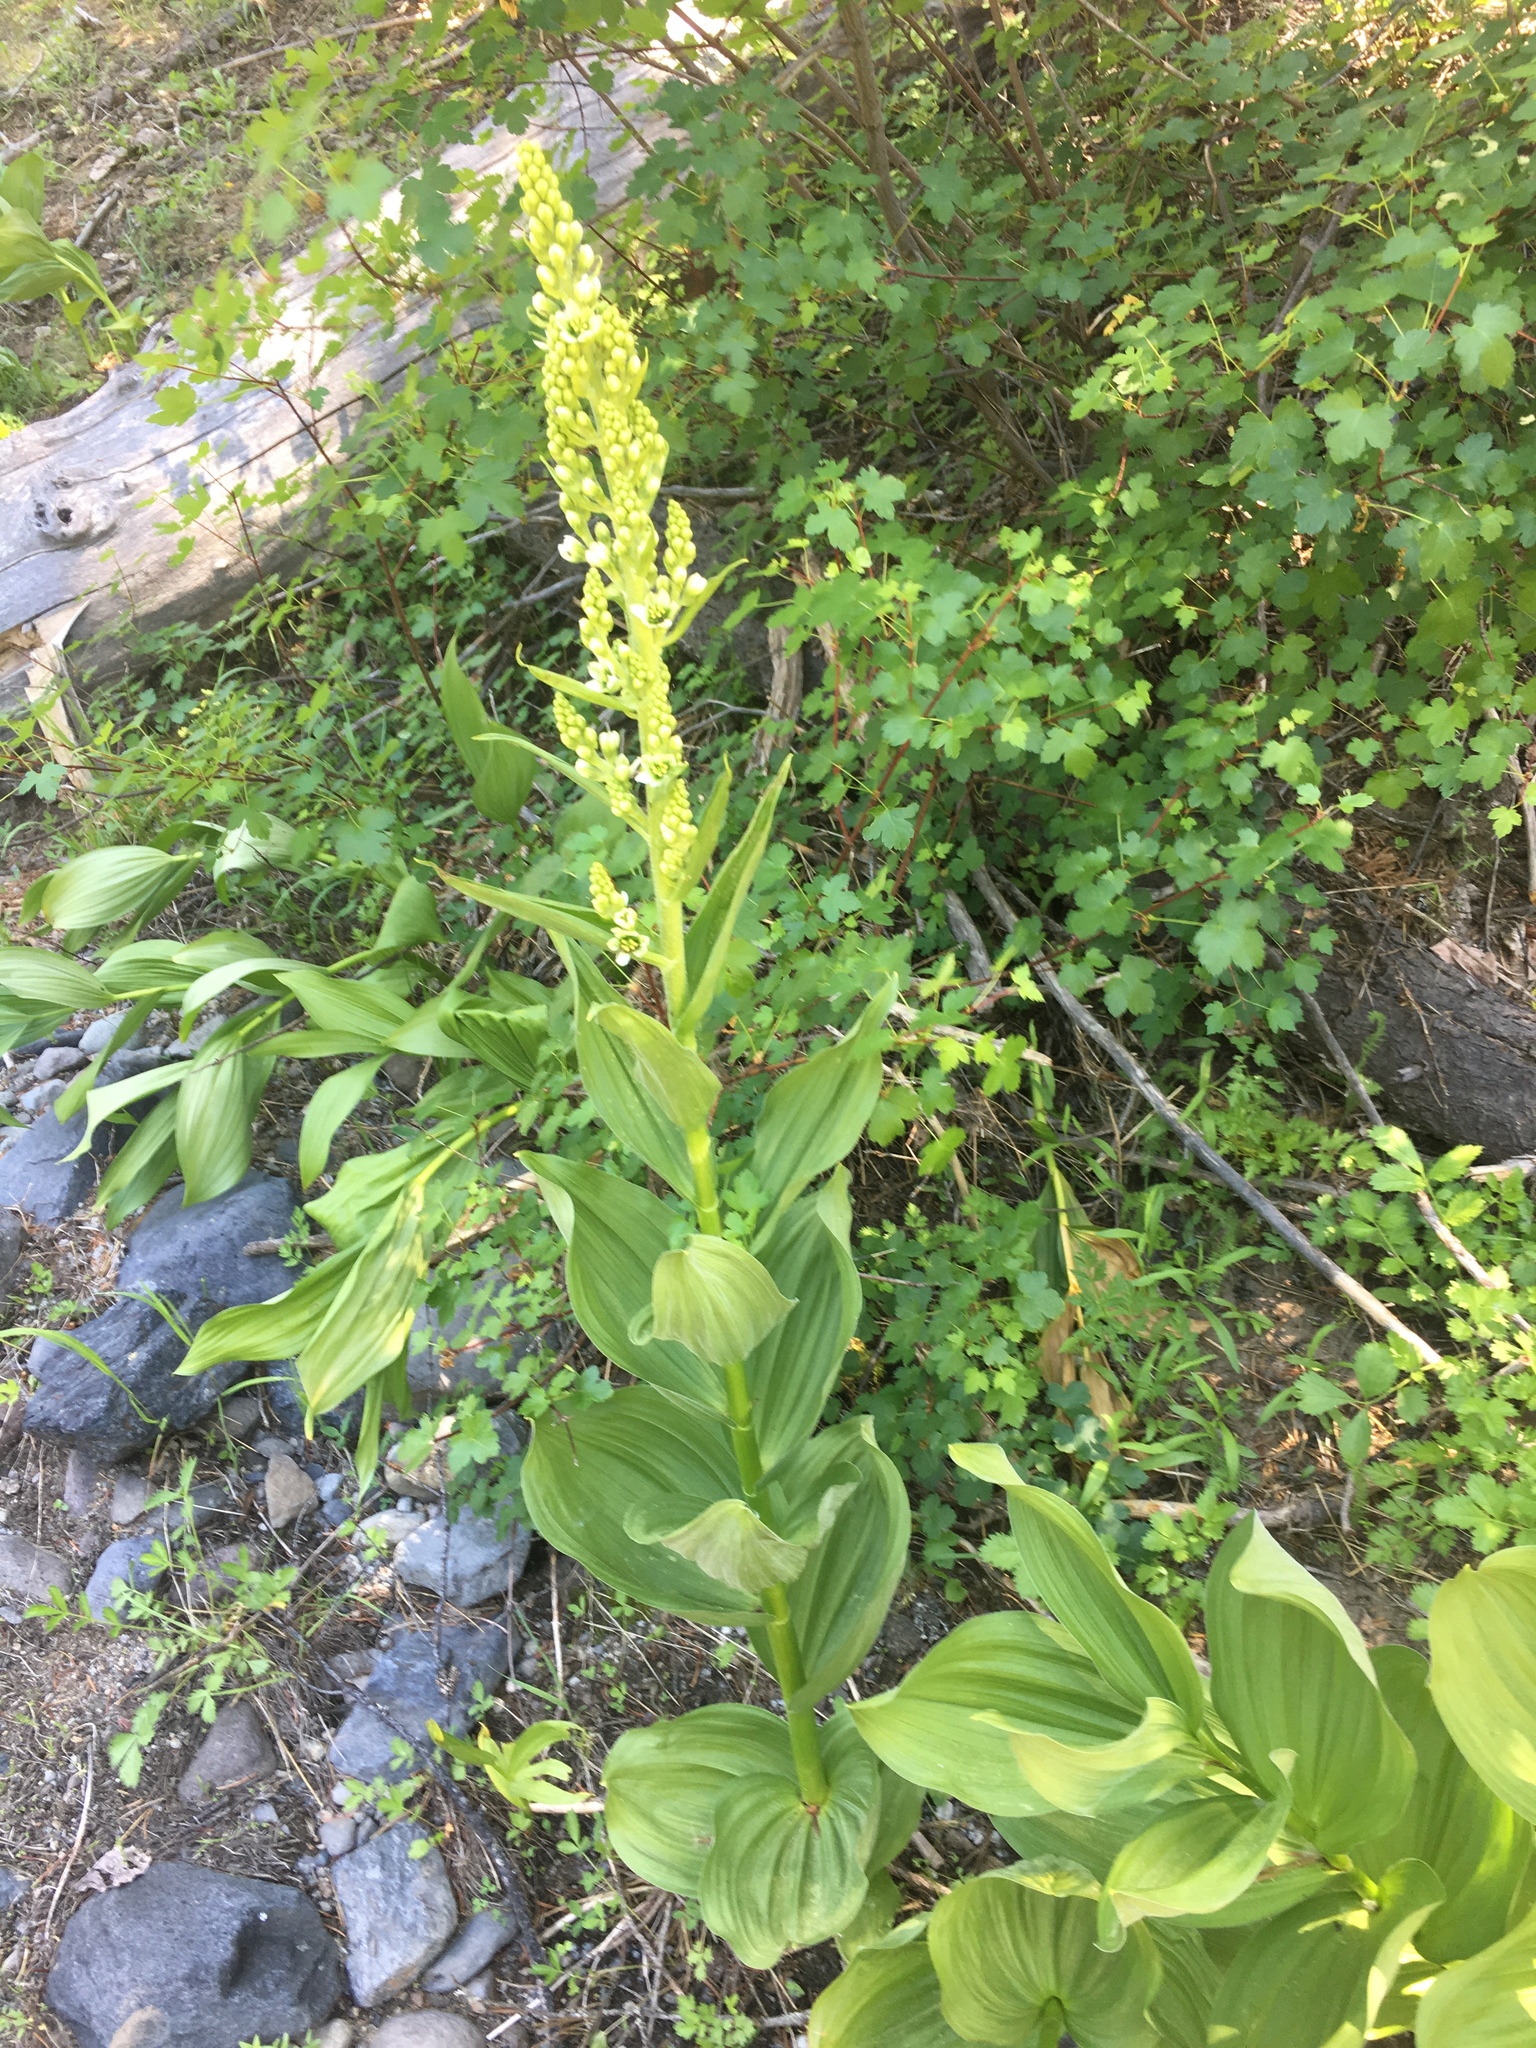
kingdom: Plantae
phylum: Tracheophyta
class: Liliopsida
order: Liliales
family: Melanthiaceae
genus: Veratrum
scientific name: Veratrum californicum
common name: California veratrum
